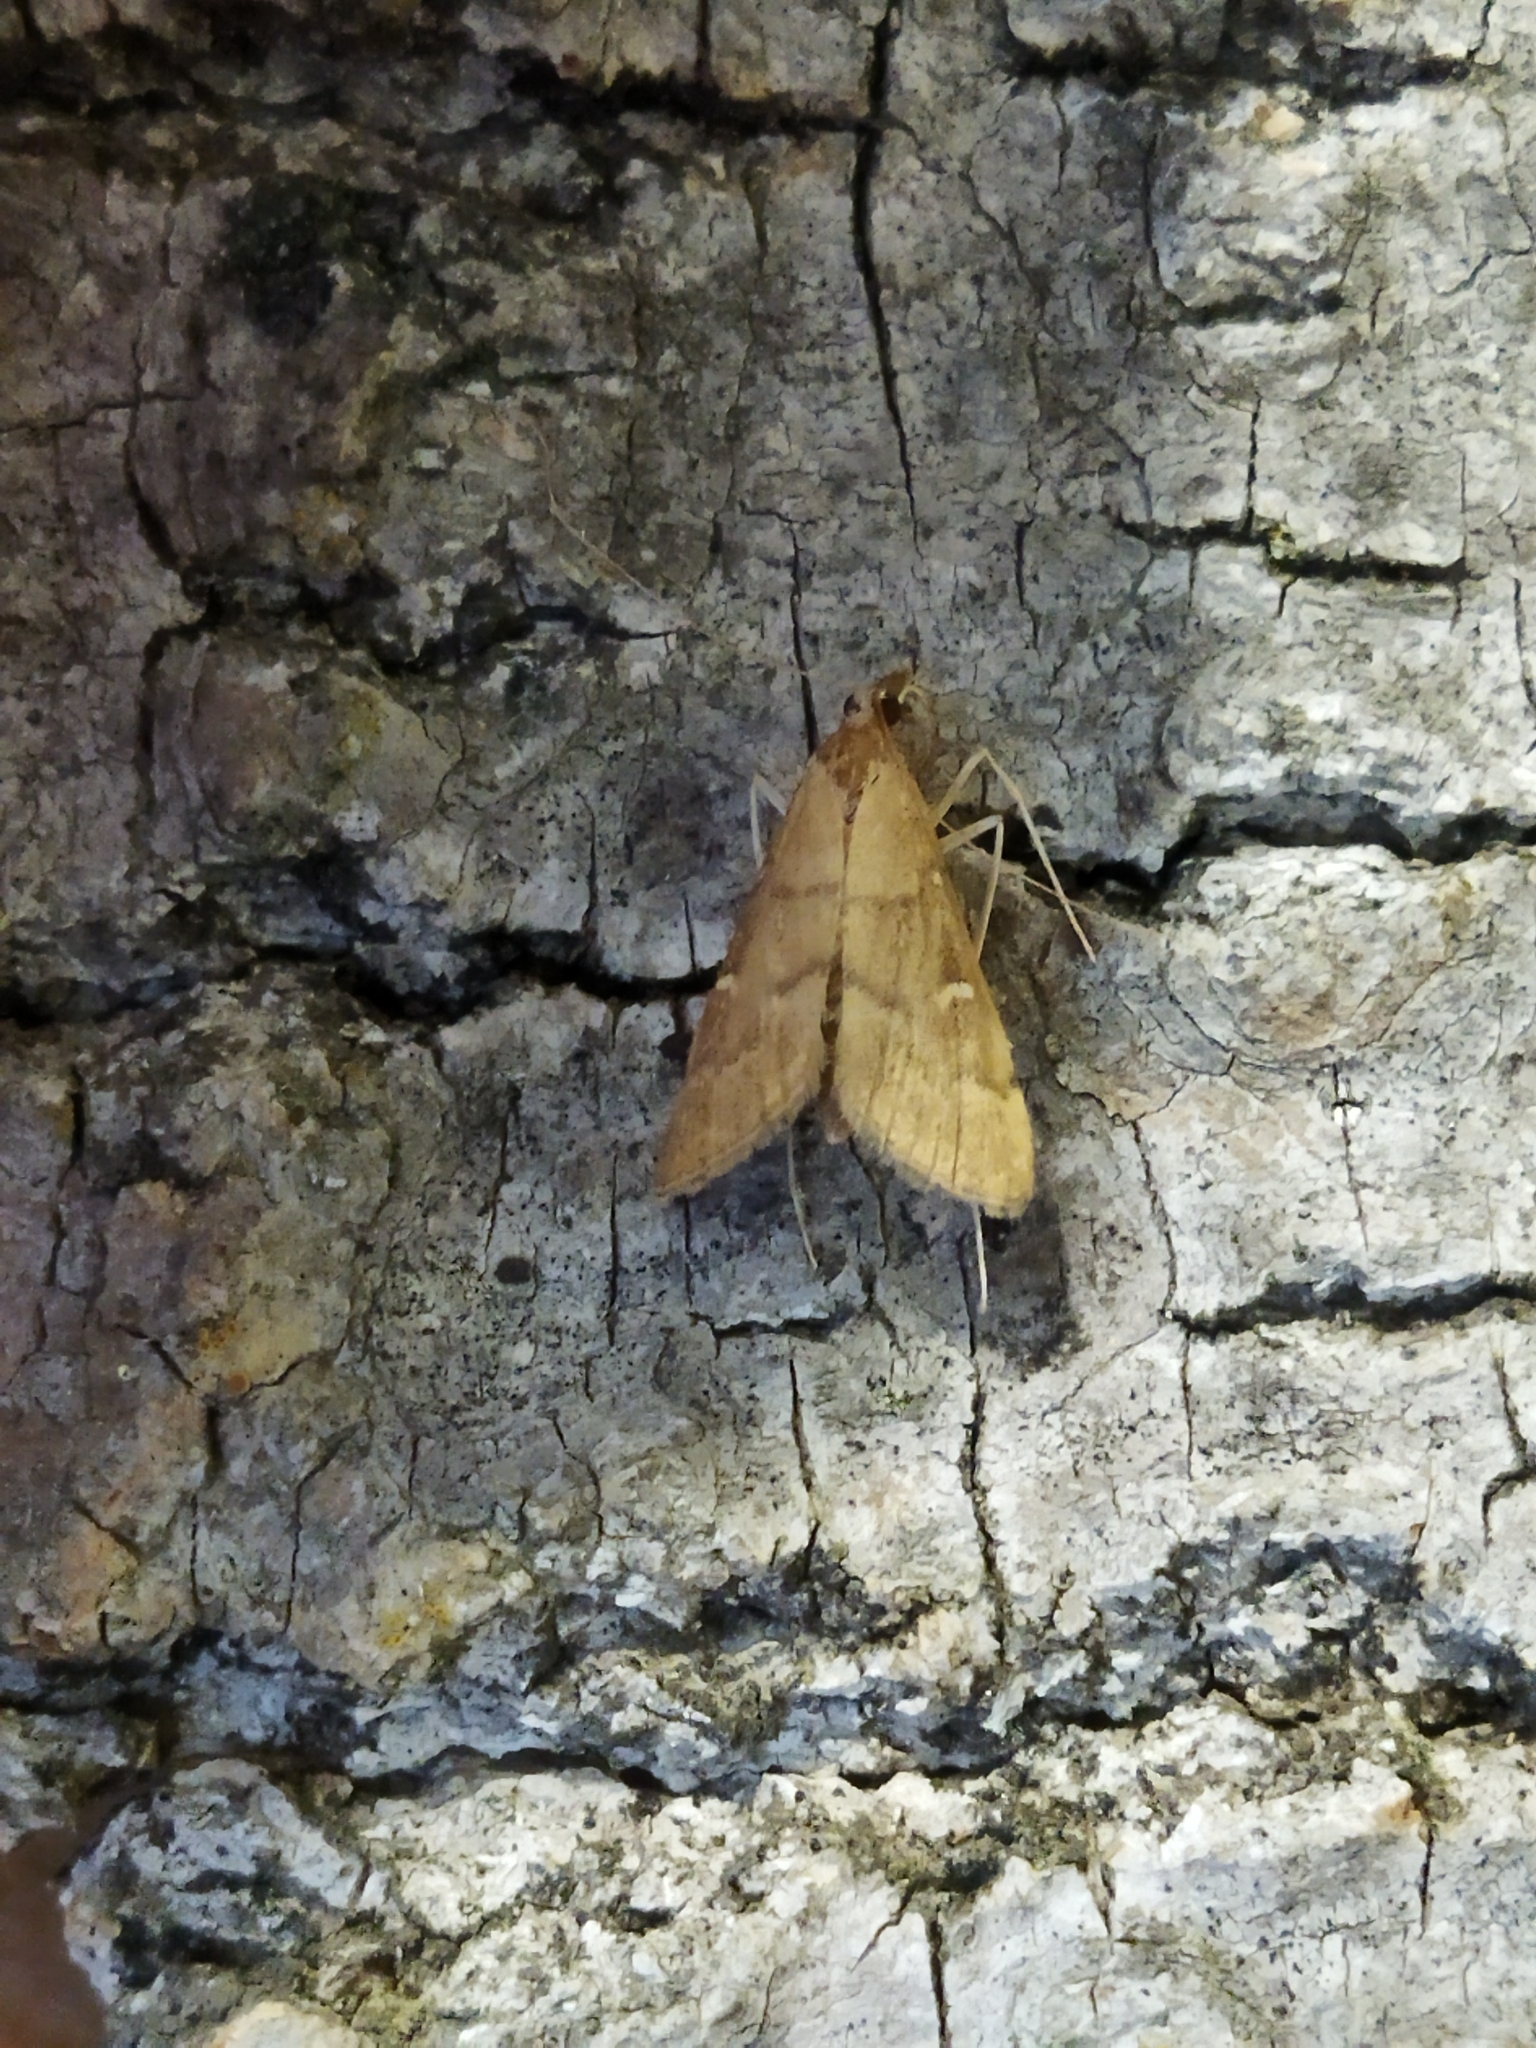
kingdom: Animalia
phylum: Arthropoda
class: Insecta
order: Lepidoptera
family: Crambidae
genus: Stenia
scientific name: Stenia Dolicharthria punctalis
